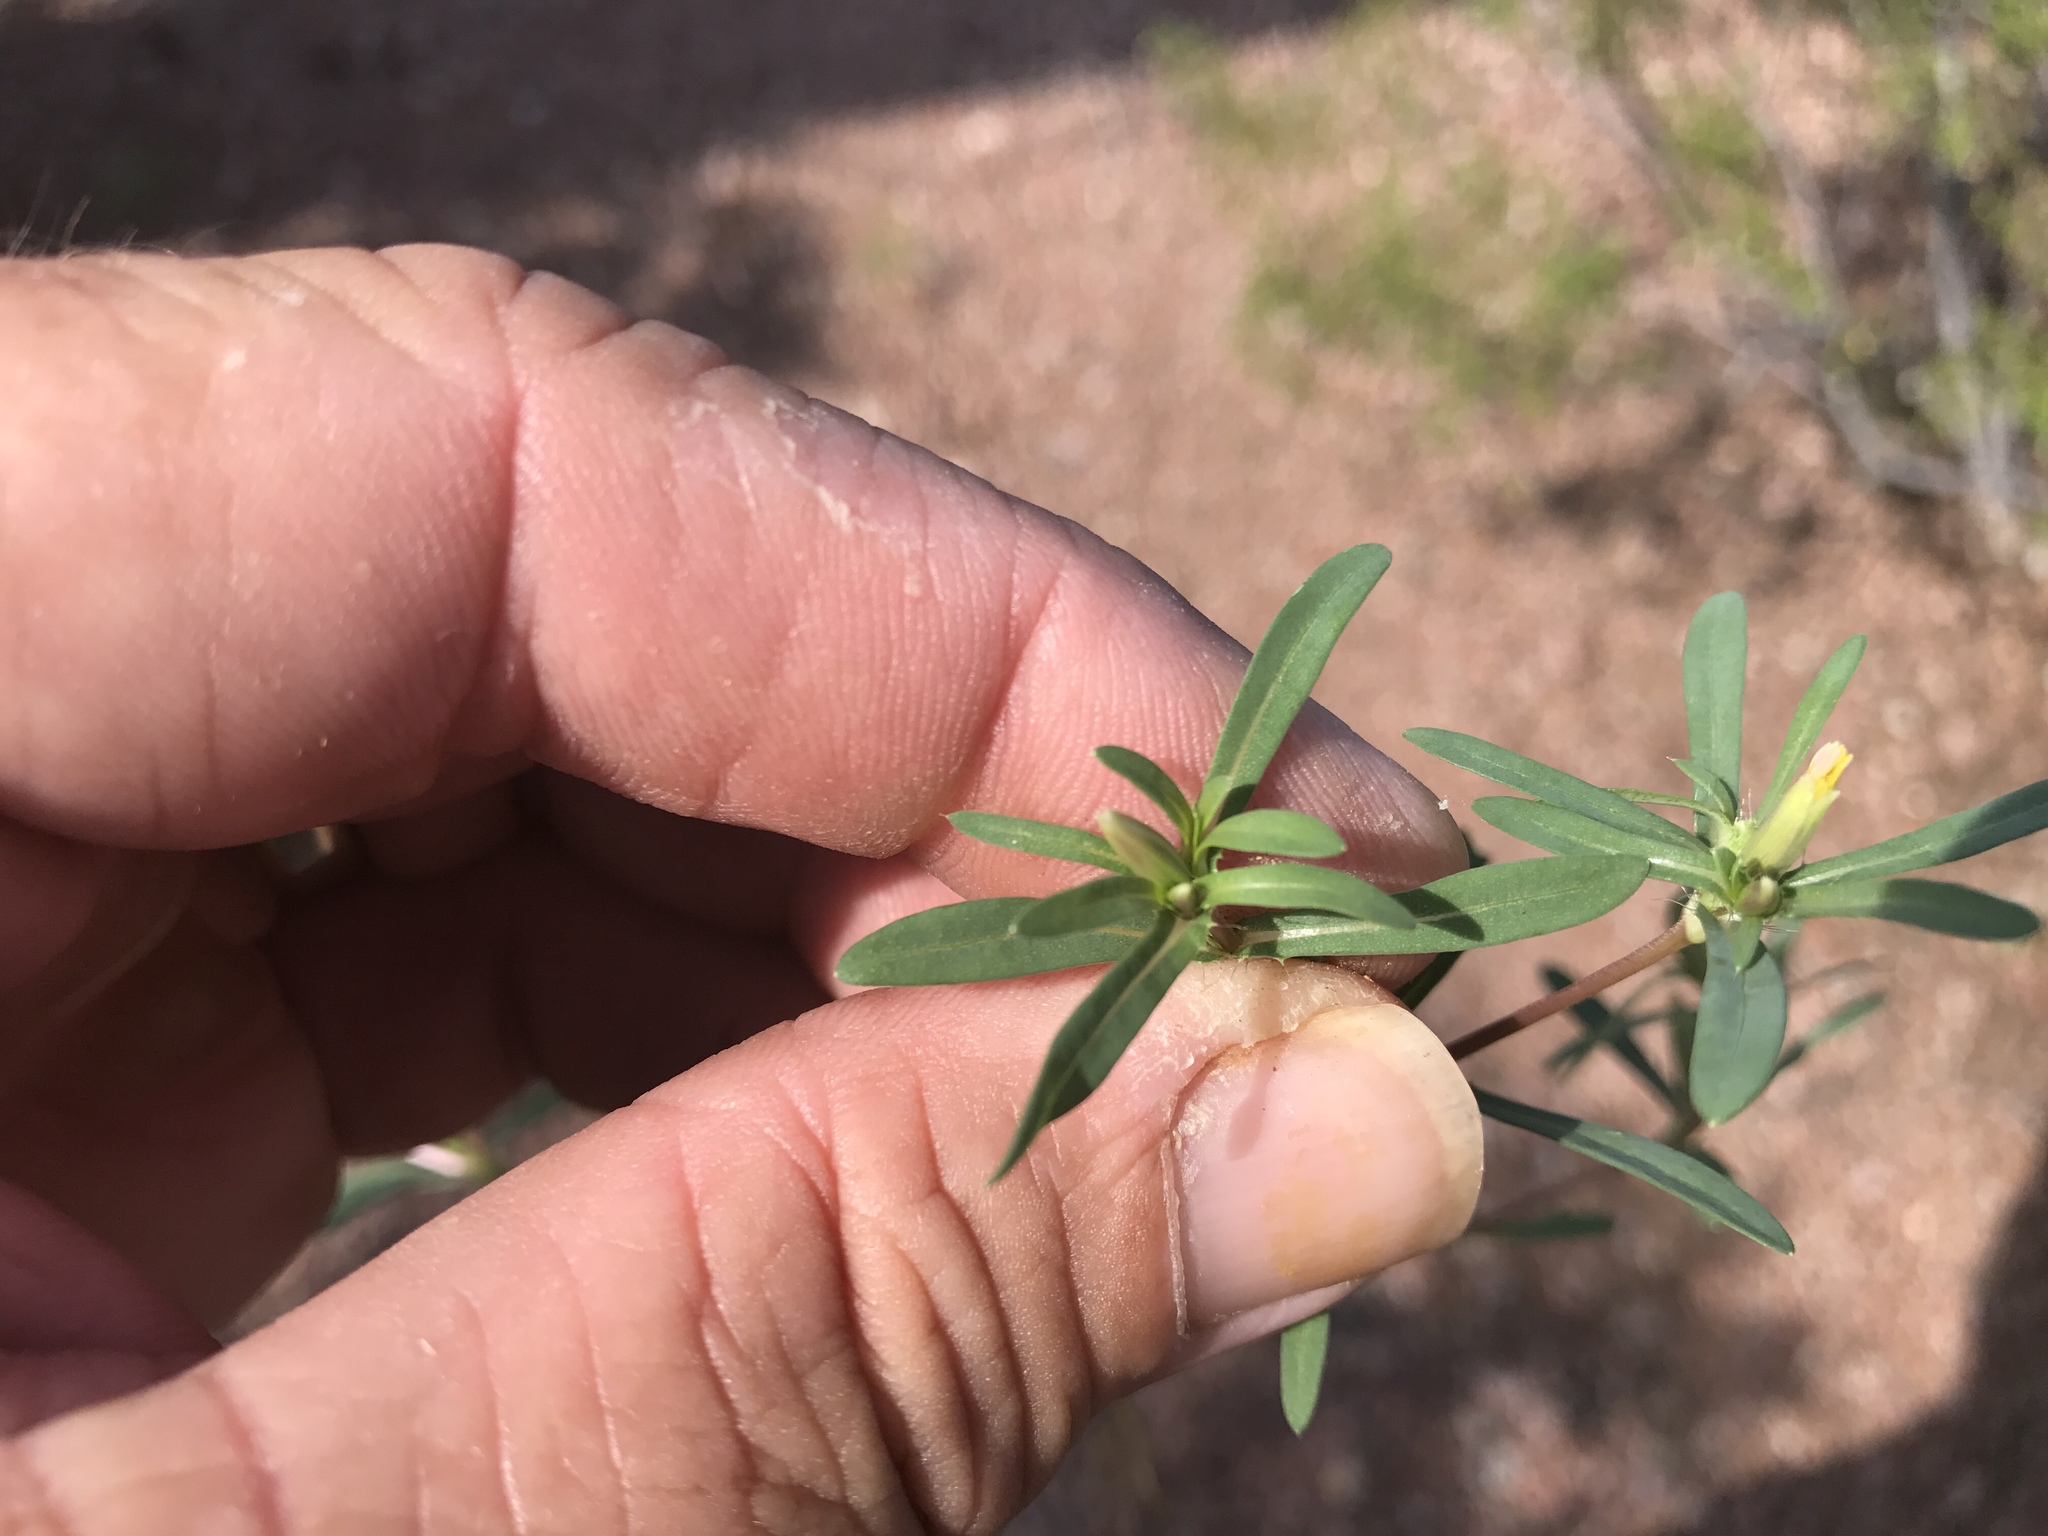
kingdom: Plantae
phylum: Tracheophyta
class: Magnoliopsida
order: Asterales
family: Asteraceae
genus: Pectis
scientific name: Pectis cylindrica
